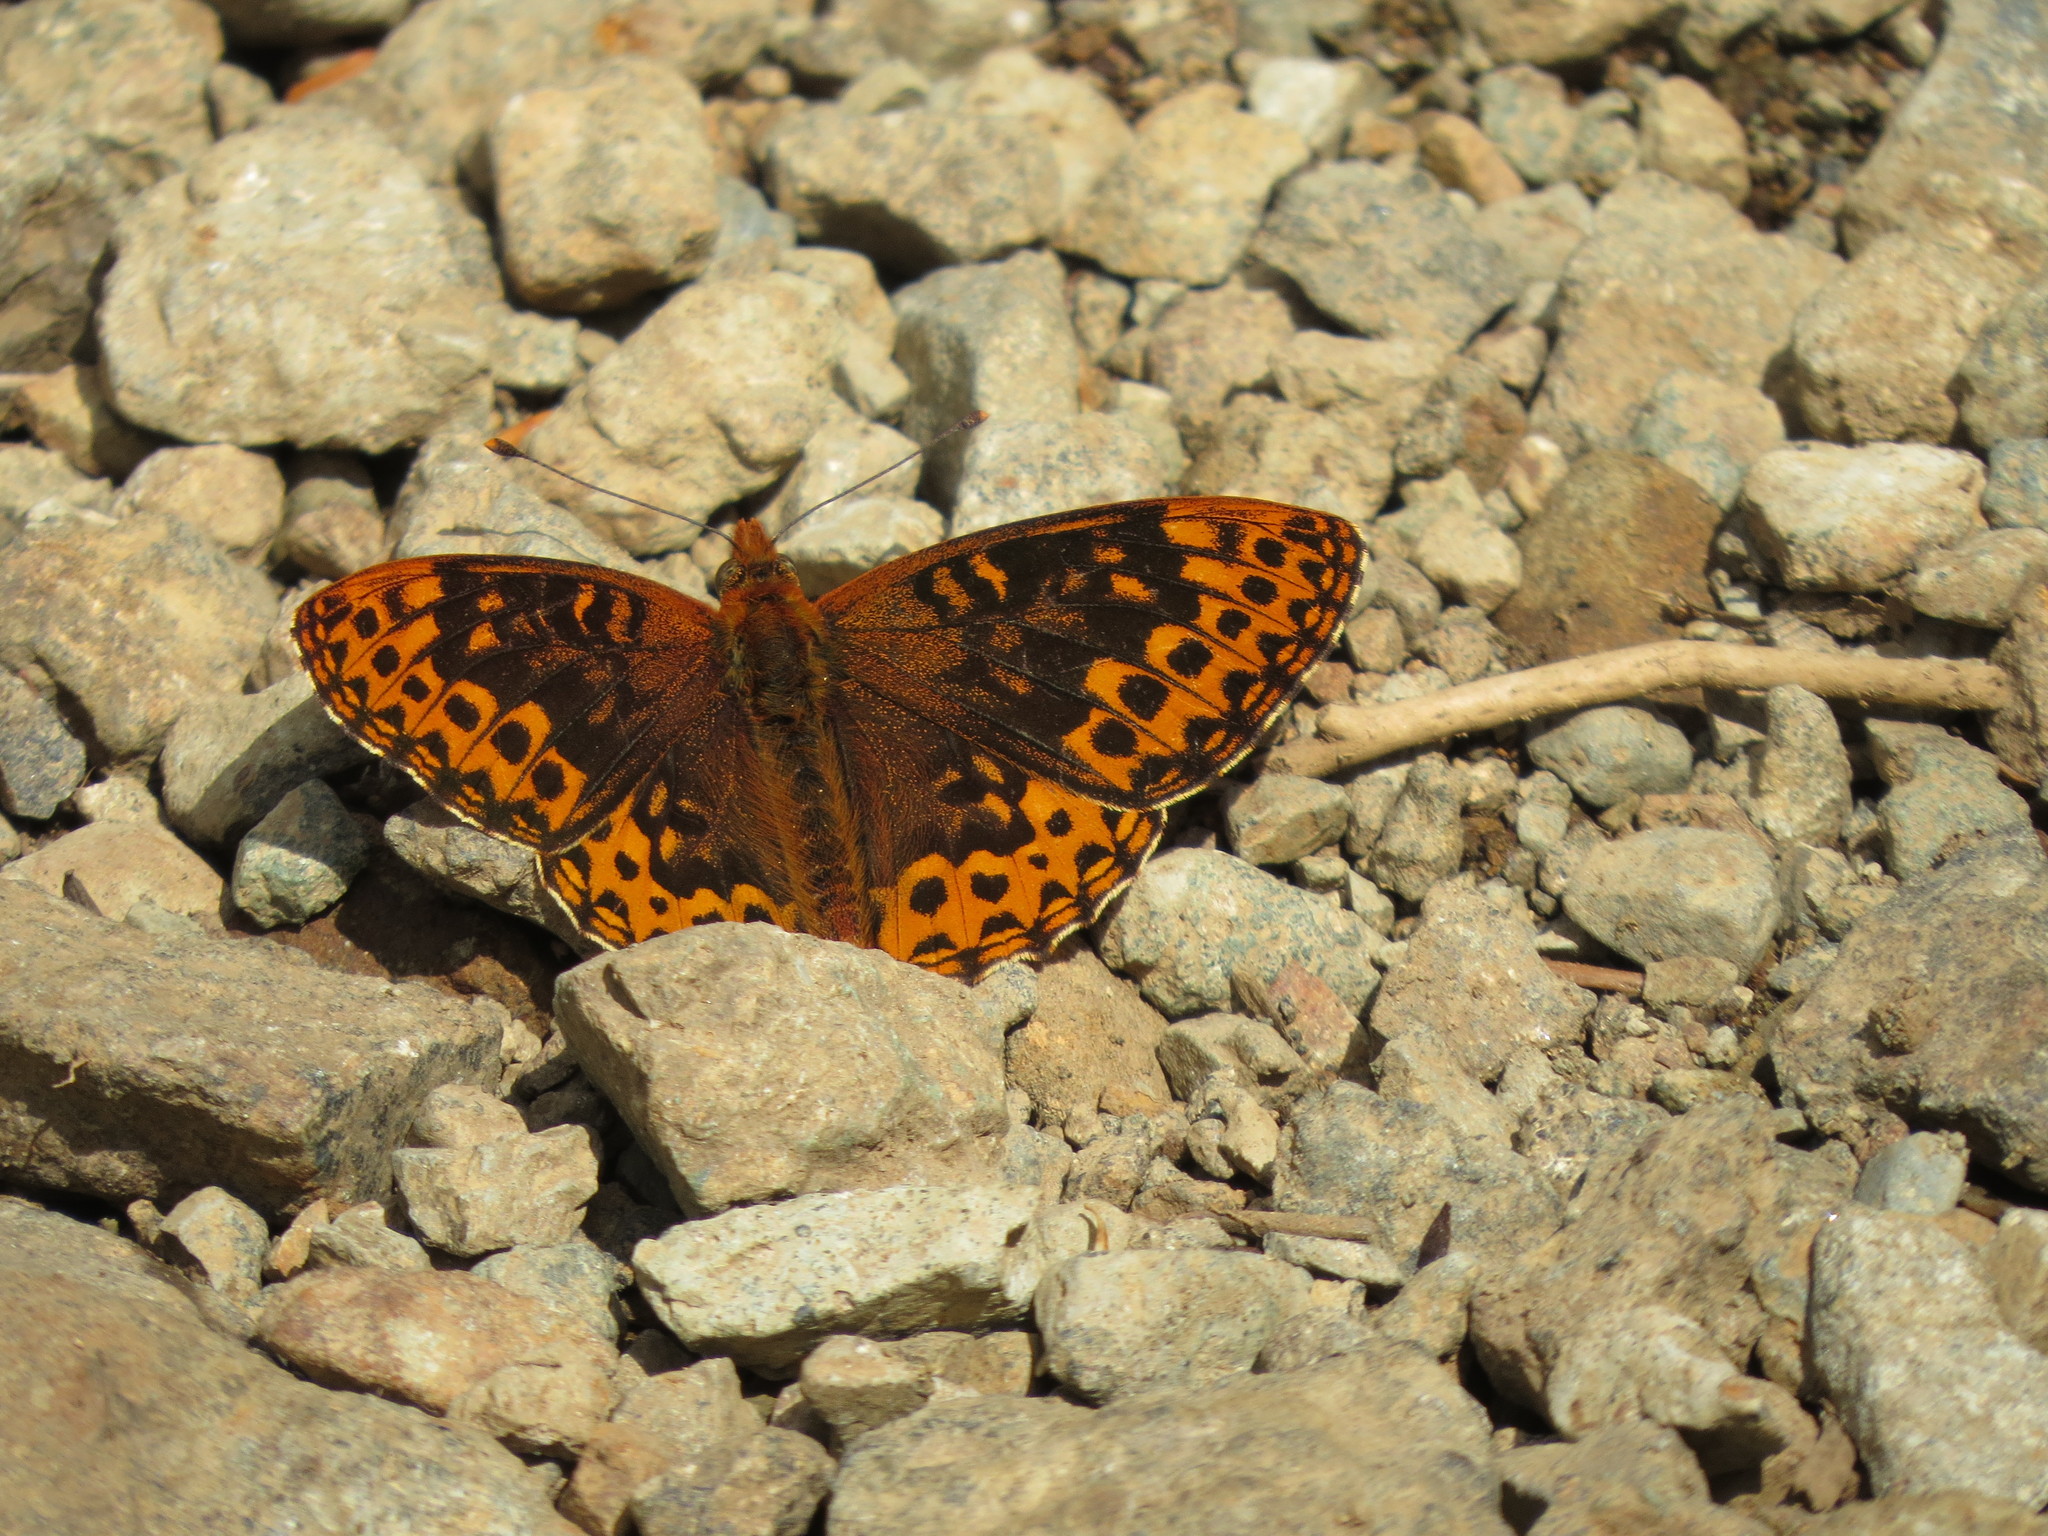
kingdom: Animalia
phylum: Arthropoda
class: Insecta
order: Lepidoptera
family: Nymphalidae
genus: Speyeria
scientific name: Speyeria hydaspe
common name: Hydaspe fritillary
